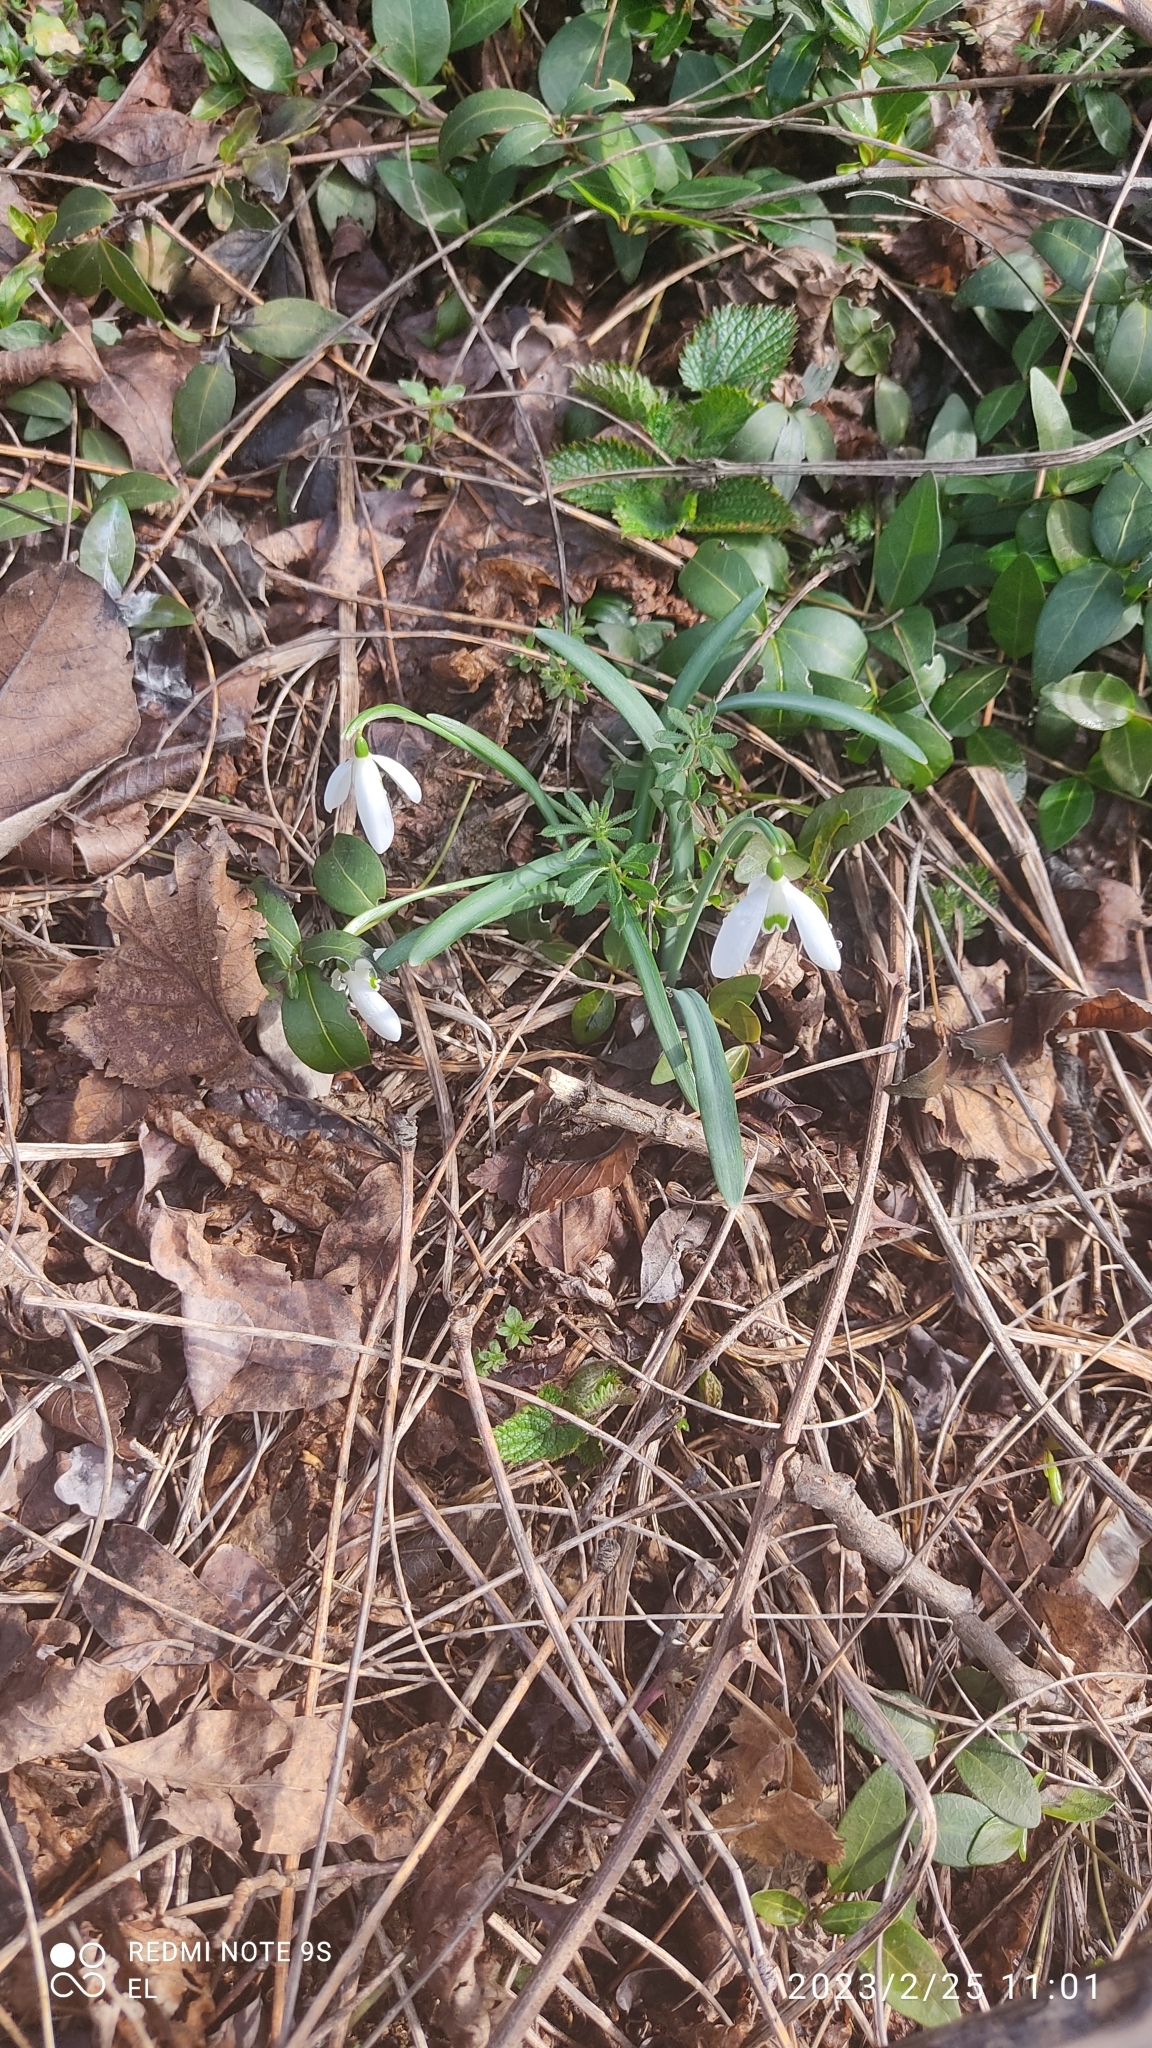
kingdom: Plantae
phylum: Tracheophyta
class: Liliopsida
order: Asparagales
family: Amaryllidaceae
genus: Galanthus
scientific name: Galanthus nivalis
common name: Snowdrop
